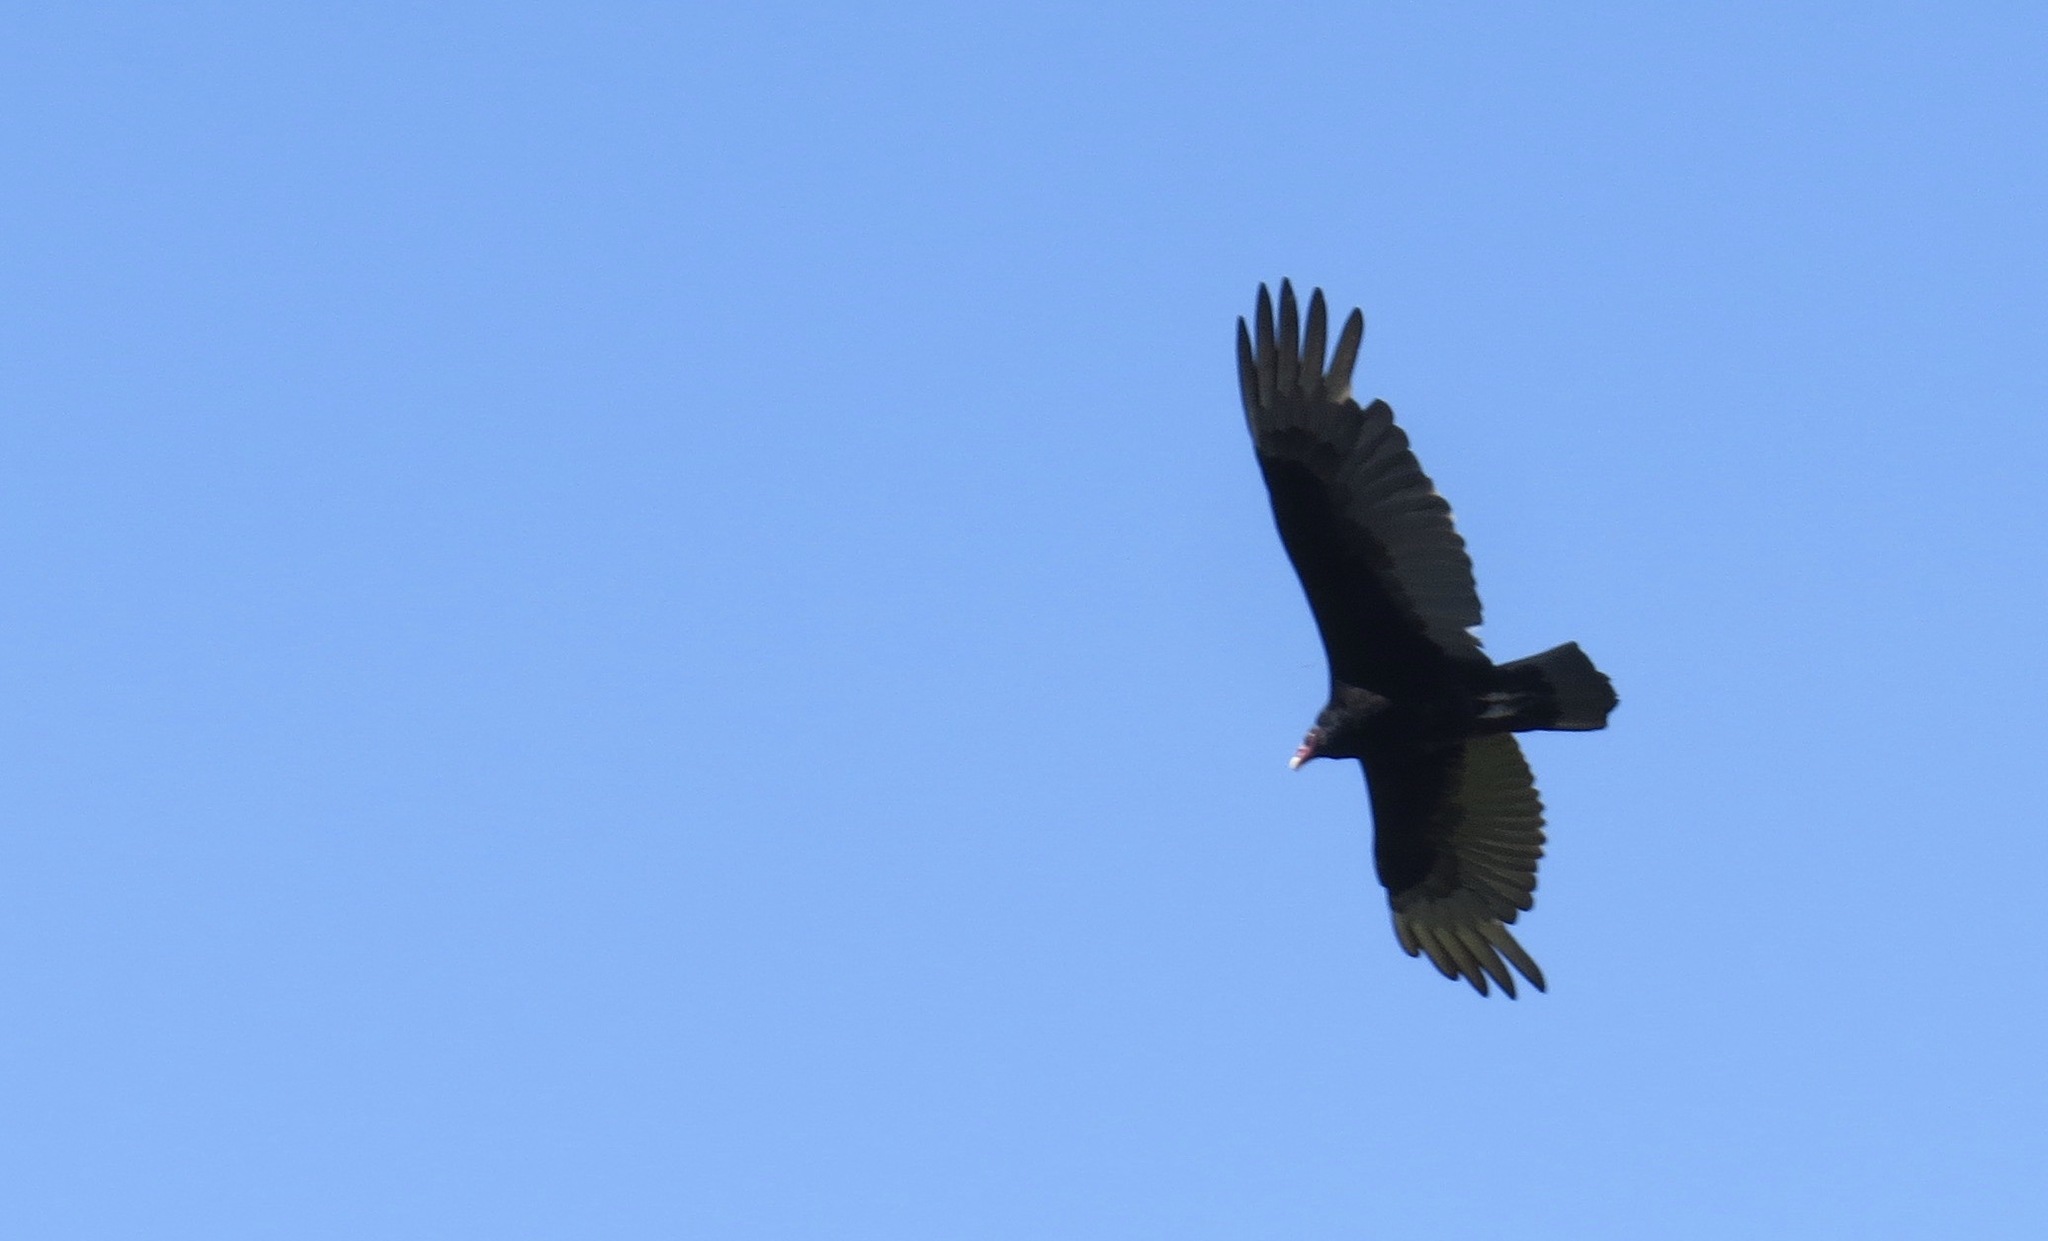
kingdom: Animalia
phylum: Chordata
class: Aves
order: Accipitriformes
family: Cathartidae
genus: Cathartes
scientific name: Cathartes aura
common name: Turkey vulture
